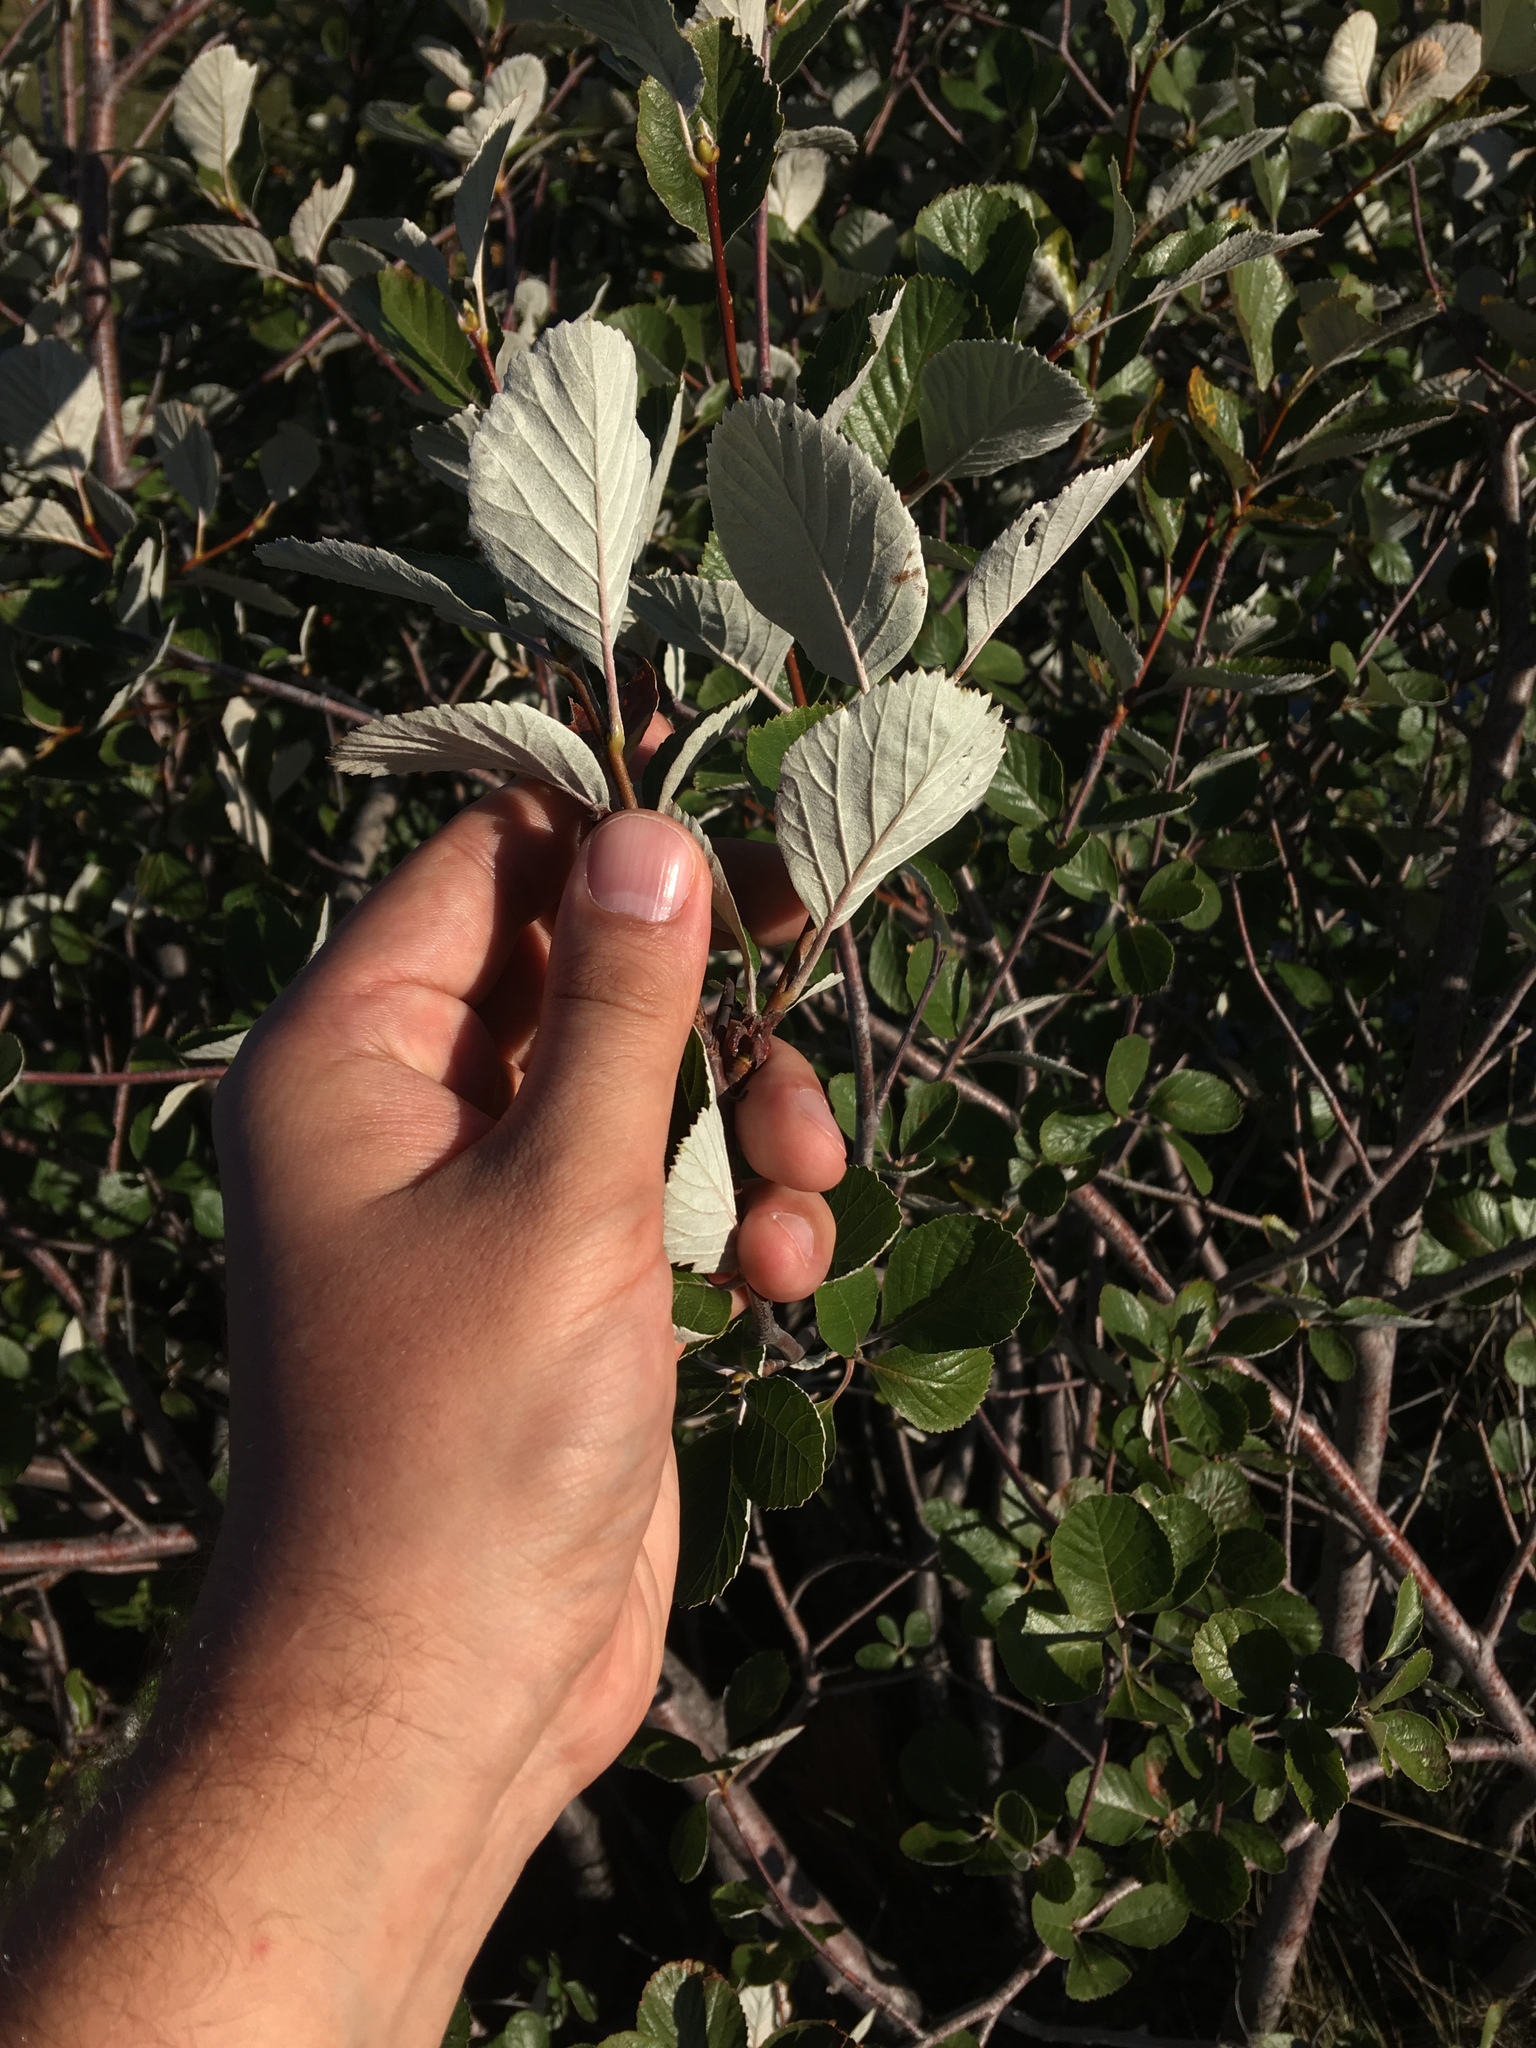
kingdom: Plantae
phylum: Tracheophyta
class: Magnoliopsida
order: Rosales
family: Rosaceae
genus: Aria
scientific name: Aria graeca
